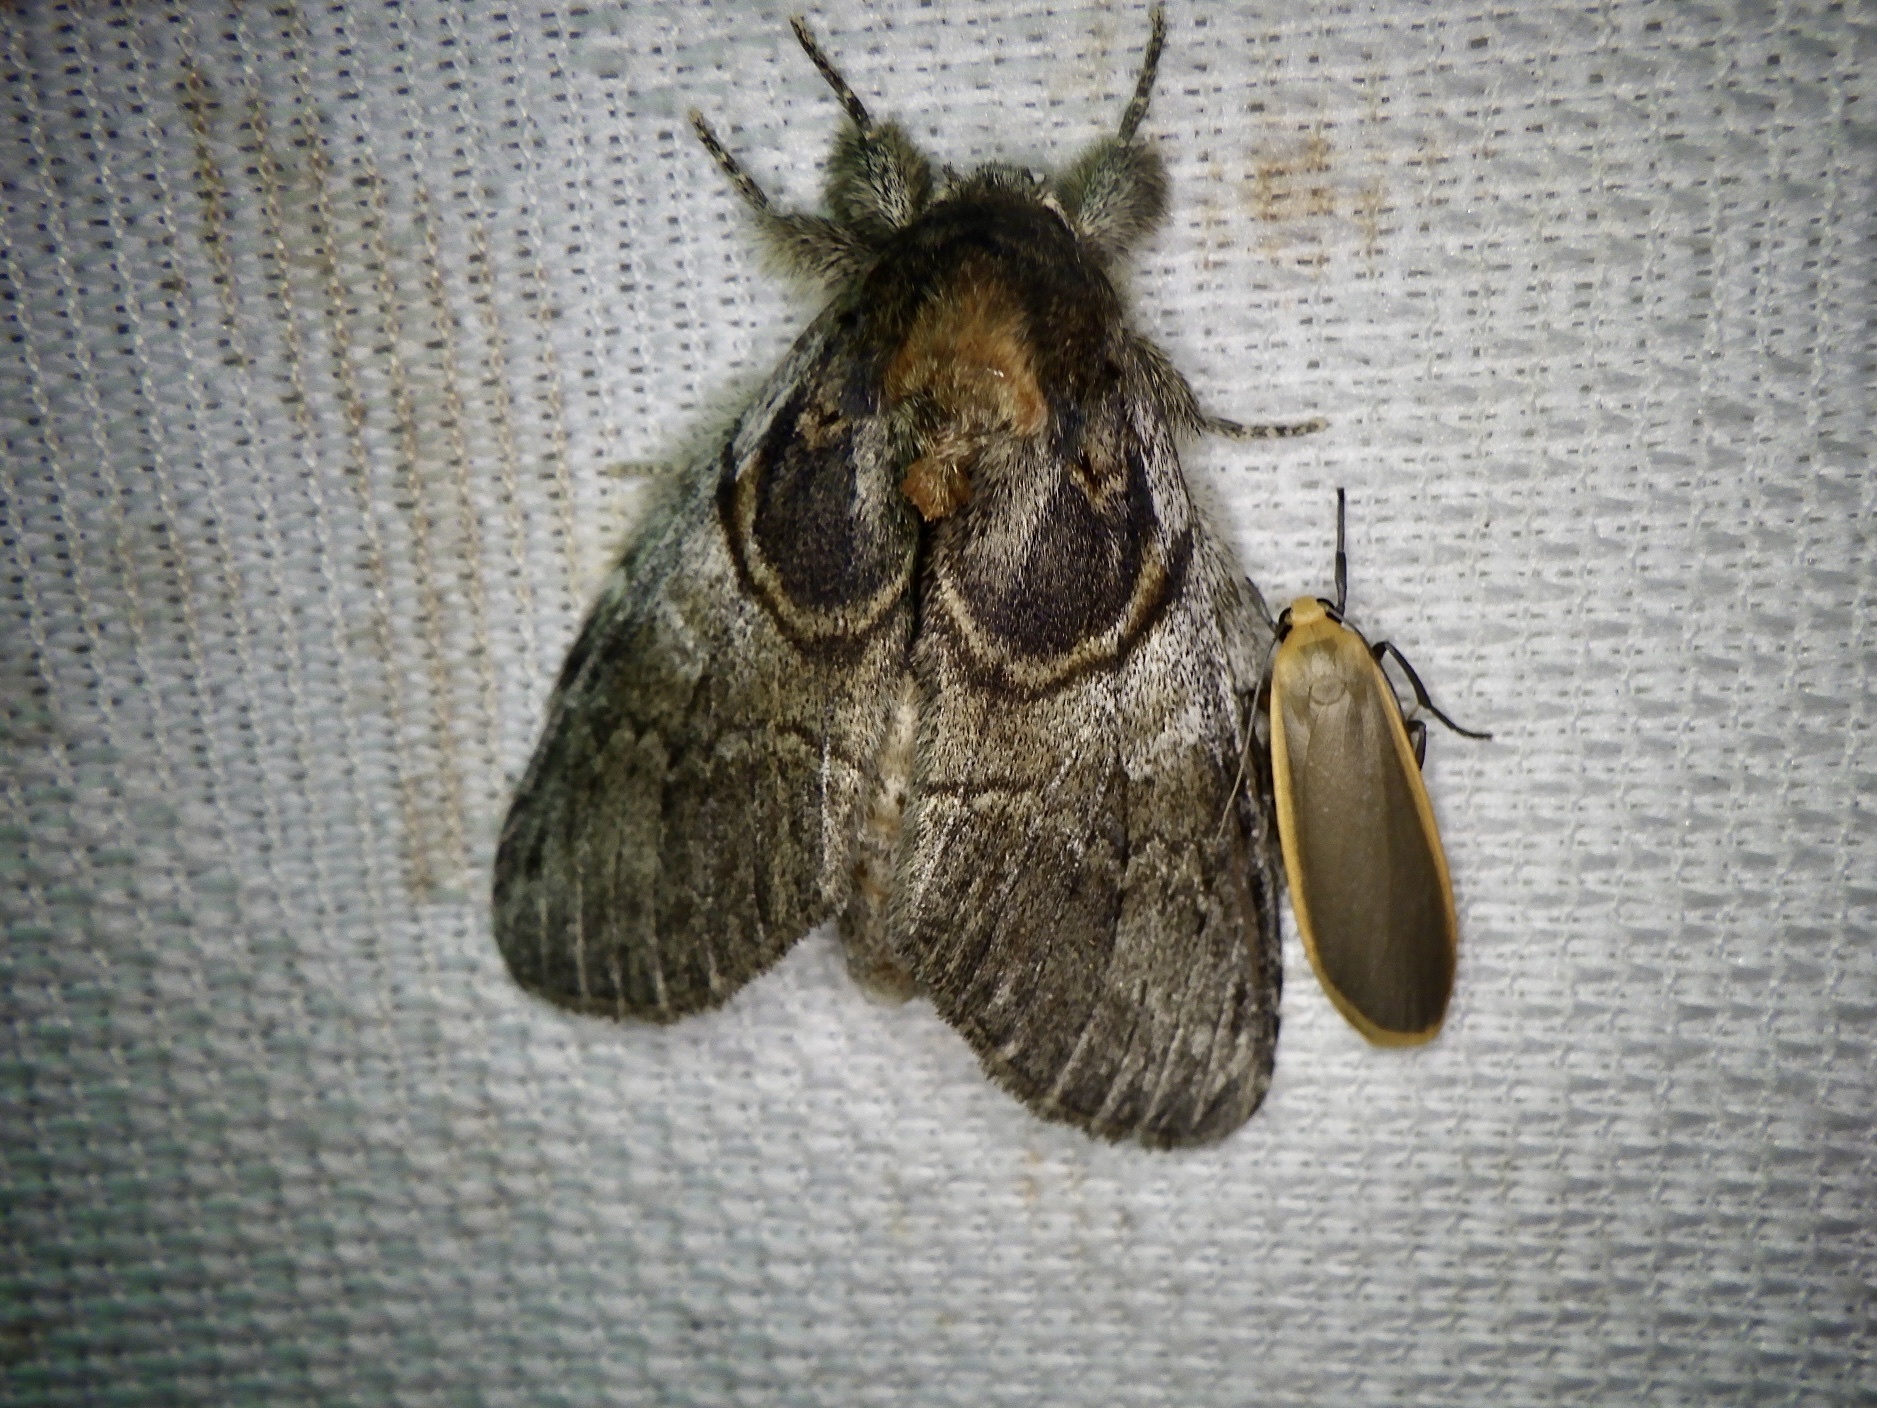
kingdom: Animalia
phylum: Arthropoda
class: Insecta
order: Lepidoptera
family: Notodontidae
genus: Peridea
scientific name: Peridea rotundata
